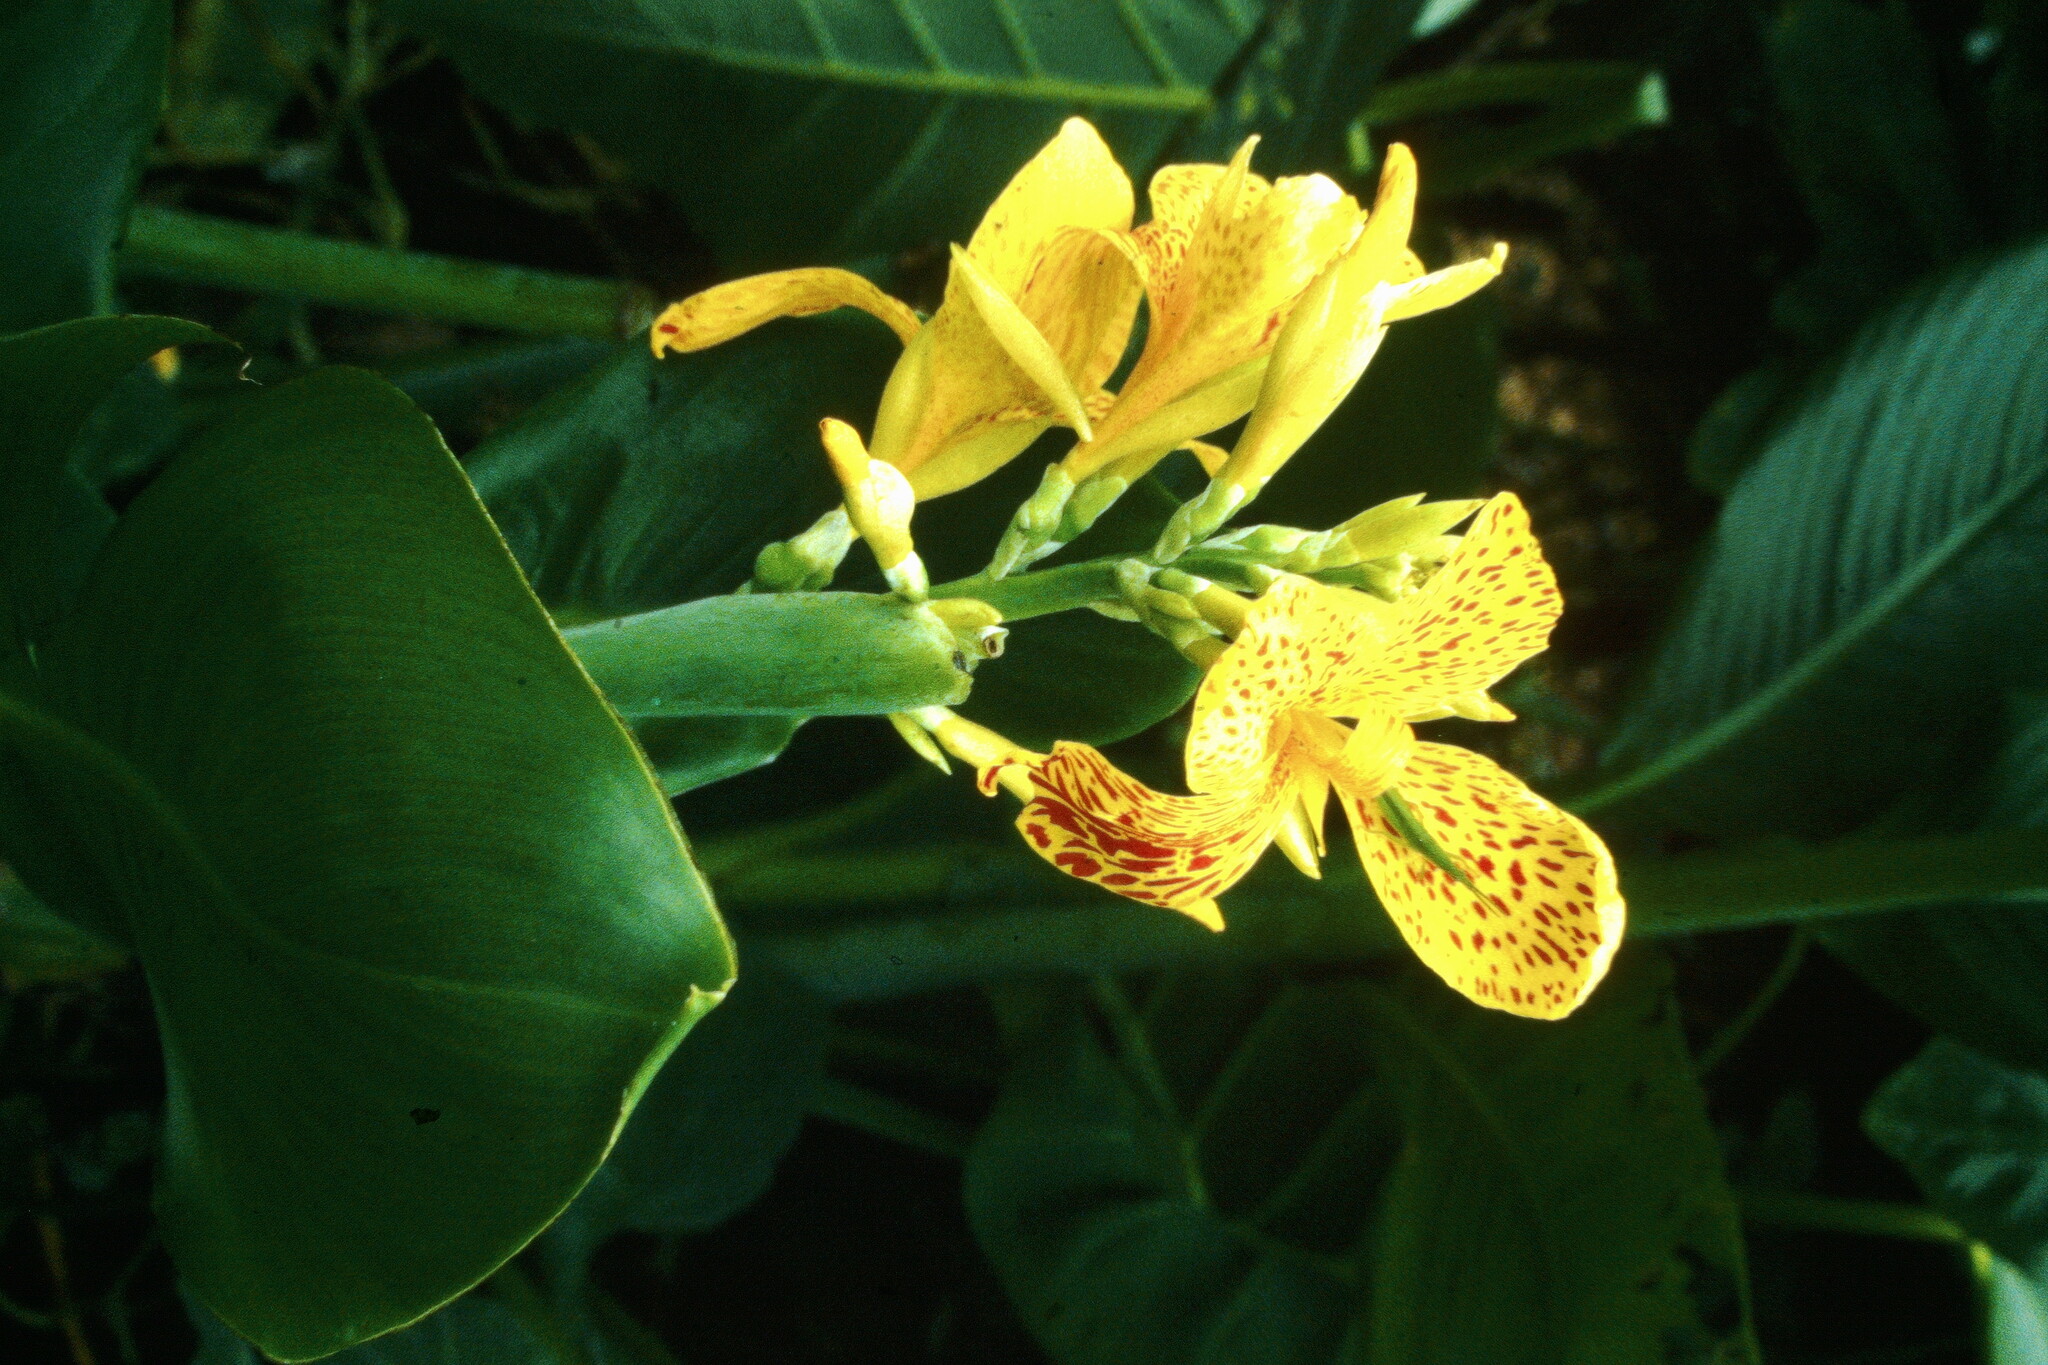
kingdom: Plantae
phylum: Tracheophyta
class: Liliopsida
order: Zingiberales
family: Cannaceae
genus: Canna
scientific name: Canna hybrida
